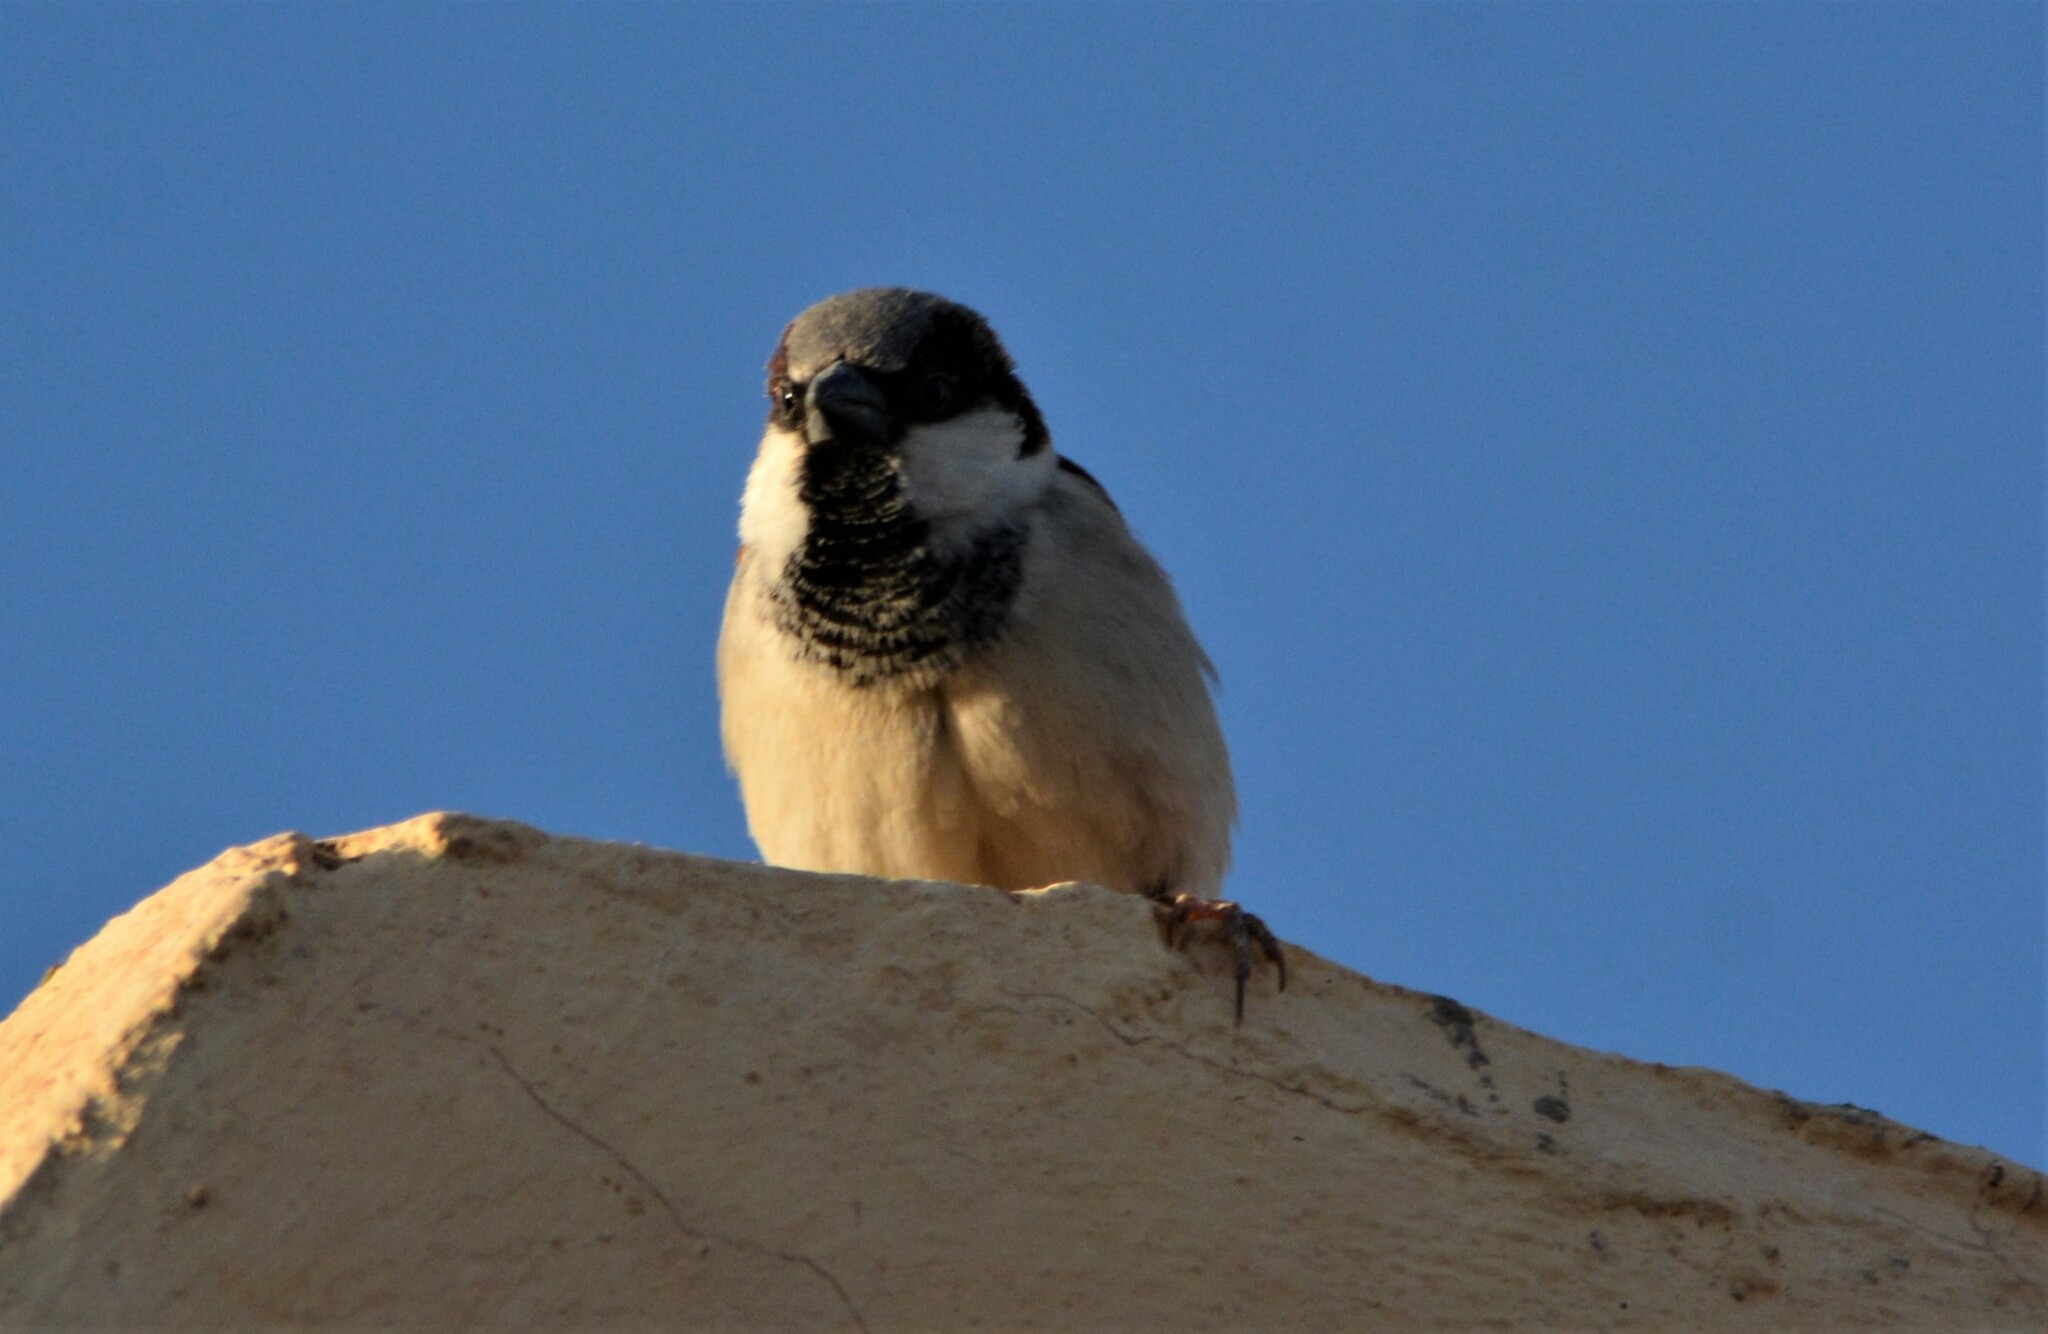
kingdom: Animalia
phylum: Chordata
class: Aves
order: Passeriformes
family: Passeridae
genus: Passer
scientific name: Passer domesticus
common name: House sparrow
